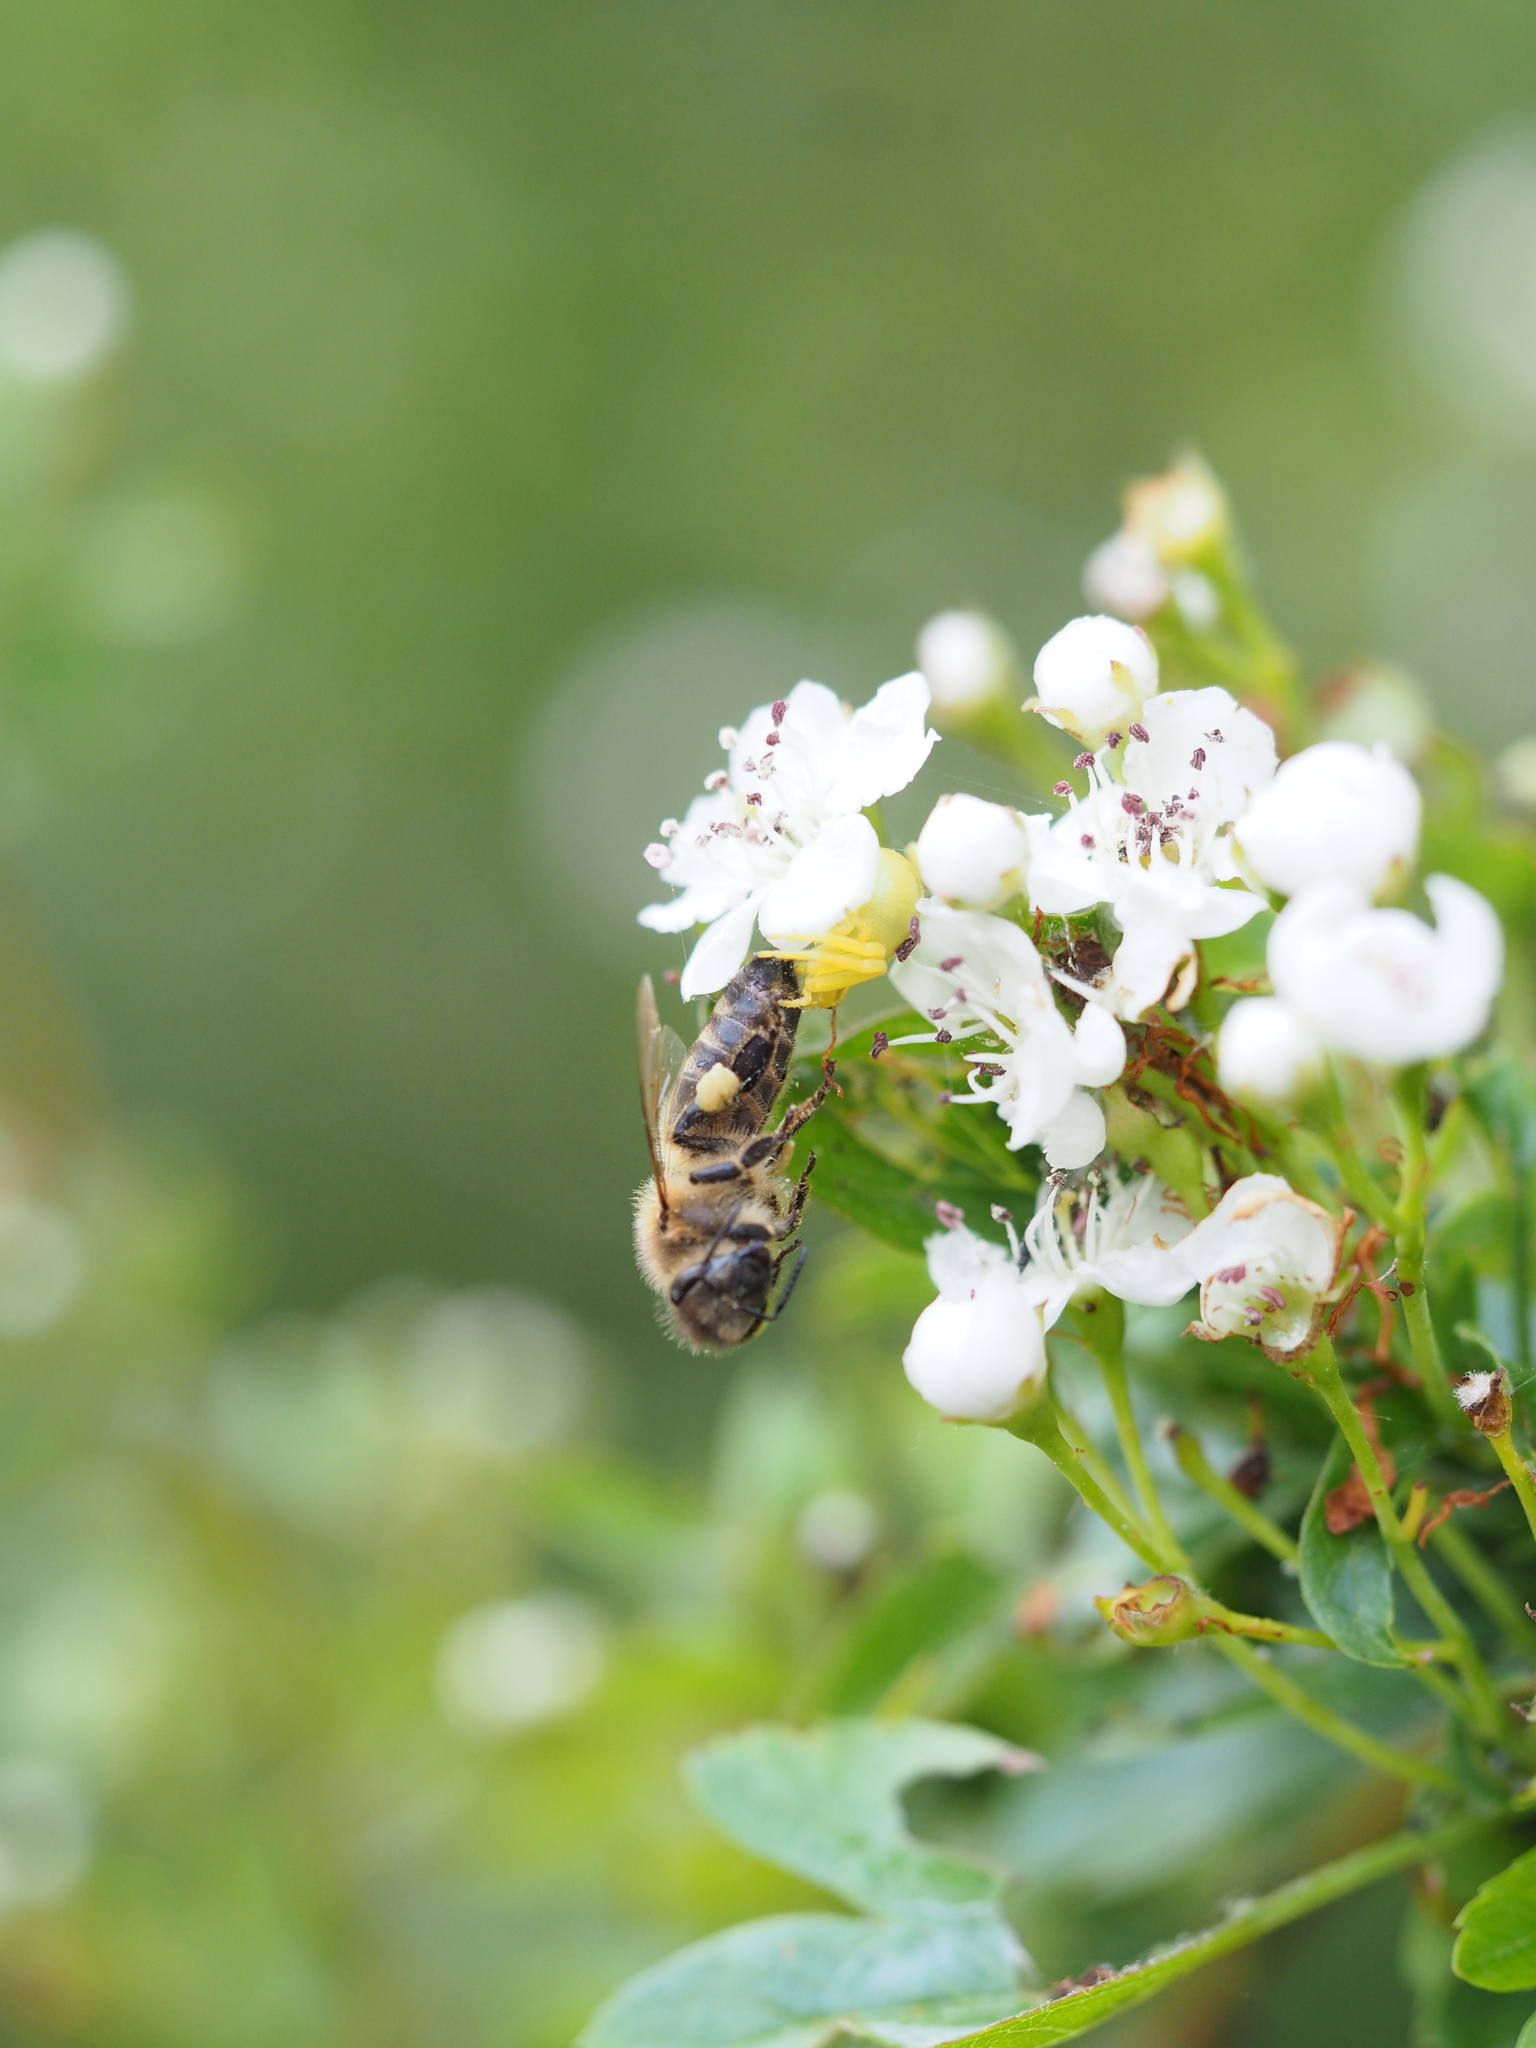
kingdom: Animalia
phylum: Arthropoda
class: Arachnida
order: Araneae
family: Thomisidae
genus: Misumena
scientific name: Misumena vatia
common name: Goldenrod crab spider
